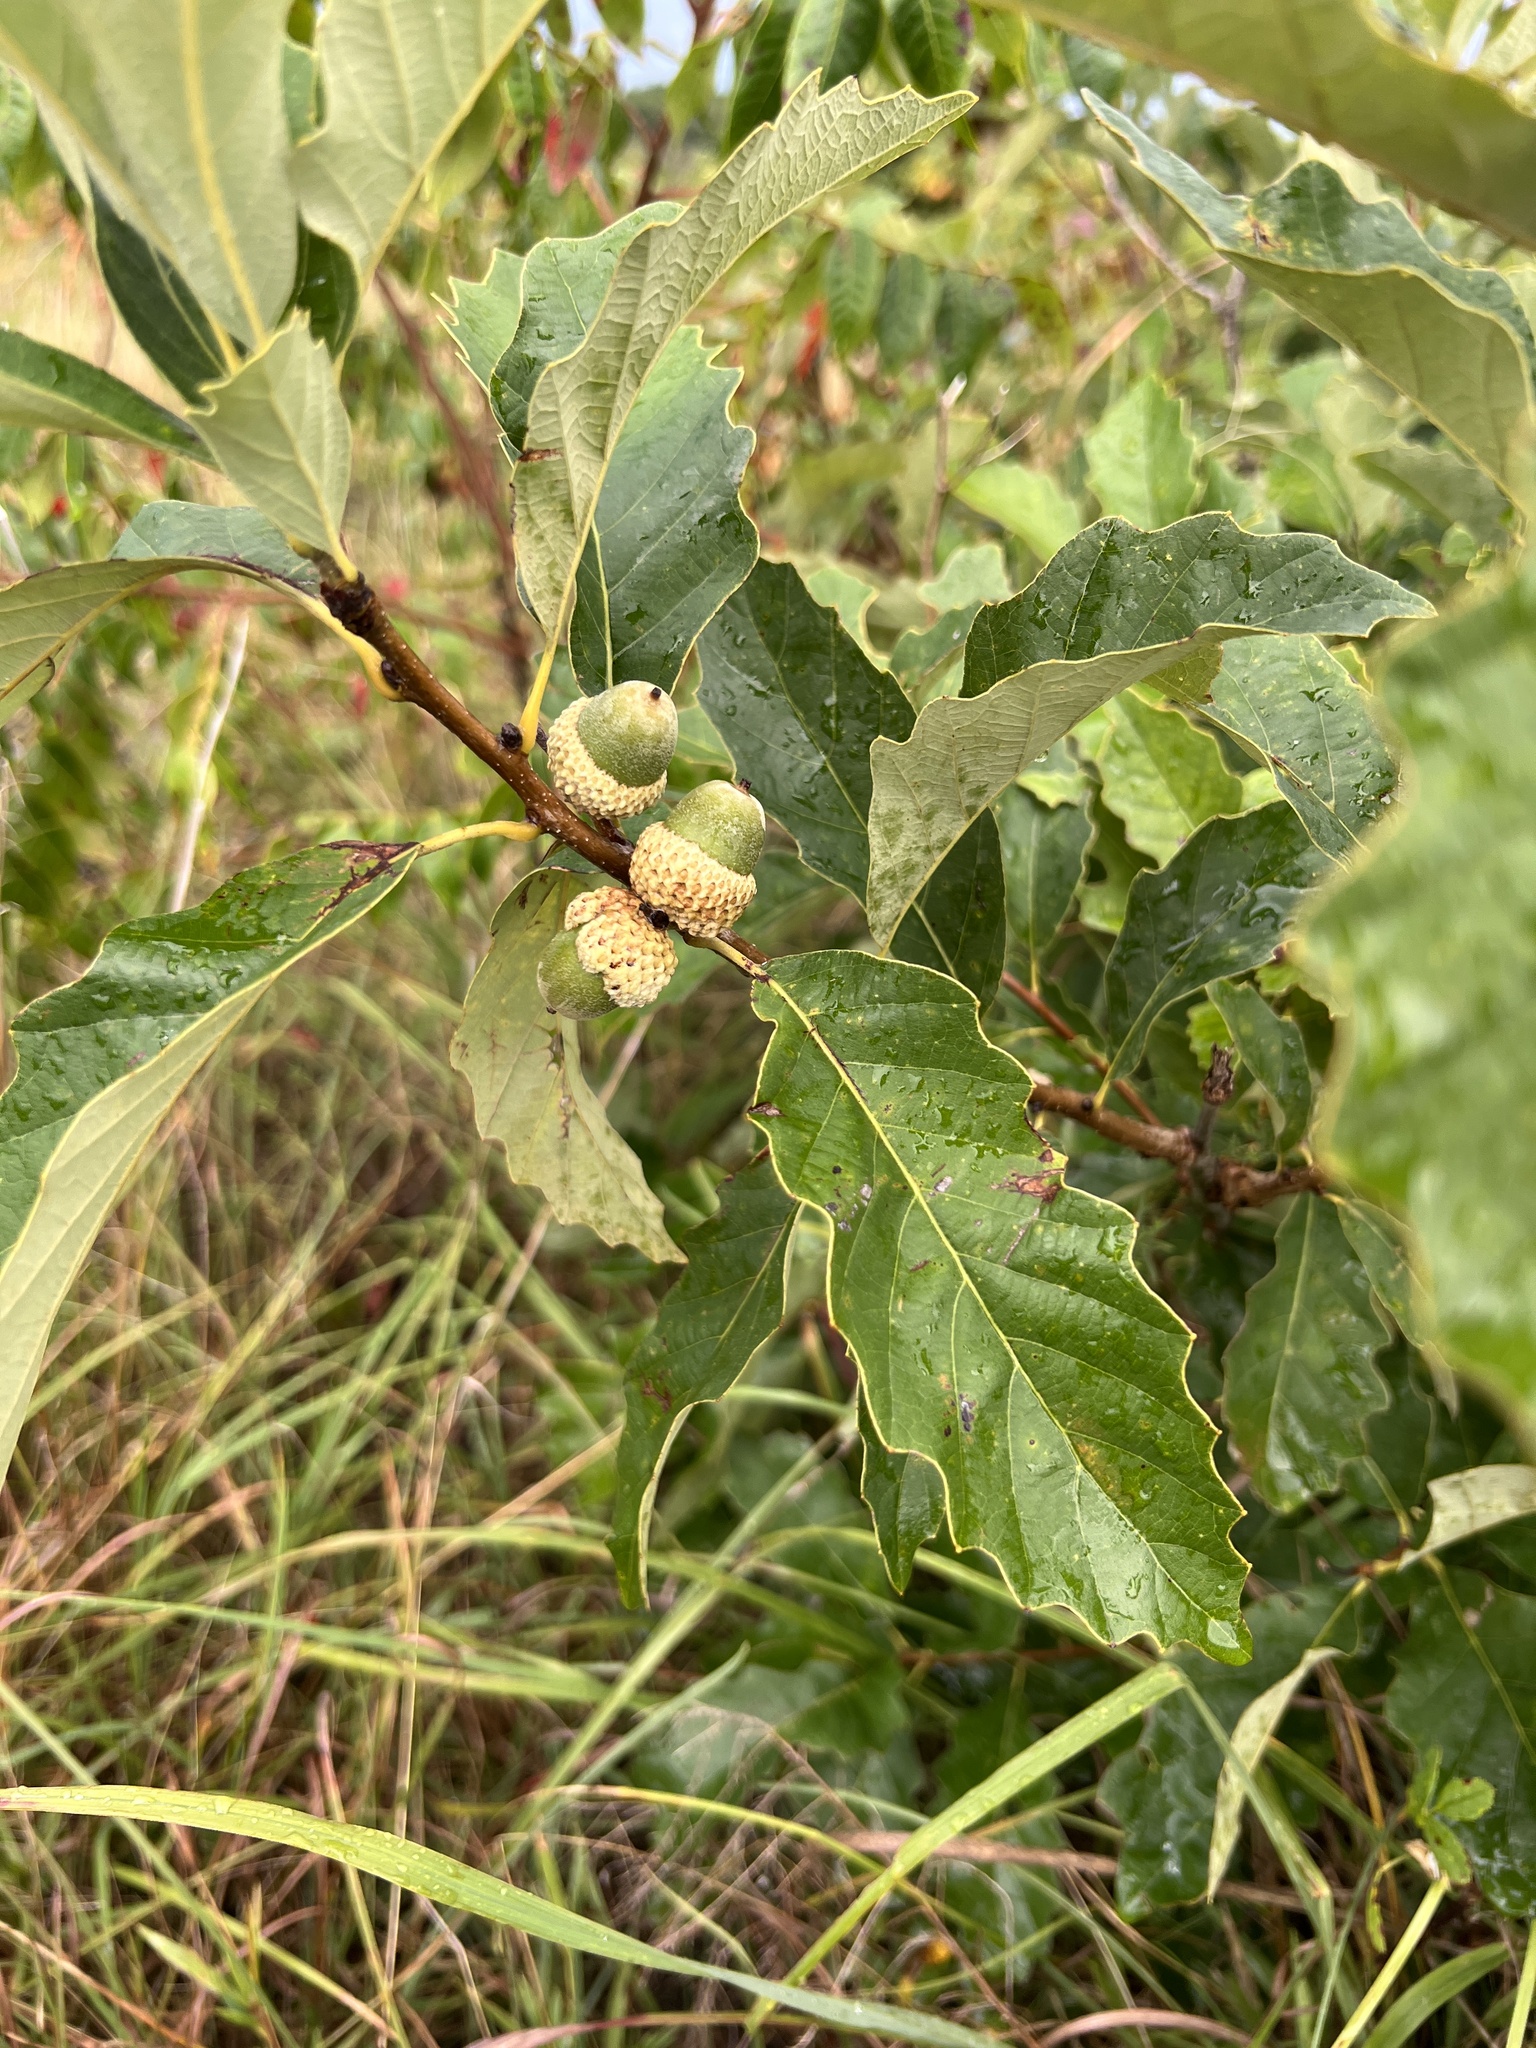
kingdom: Plantae
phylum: Tracheophyta
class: Magnoliopsida
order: Fagales
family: Fagaceae
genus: Quercus
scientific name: Quercus prinoides
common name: Dwarf chinkapin oak
